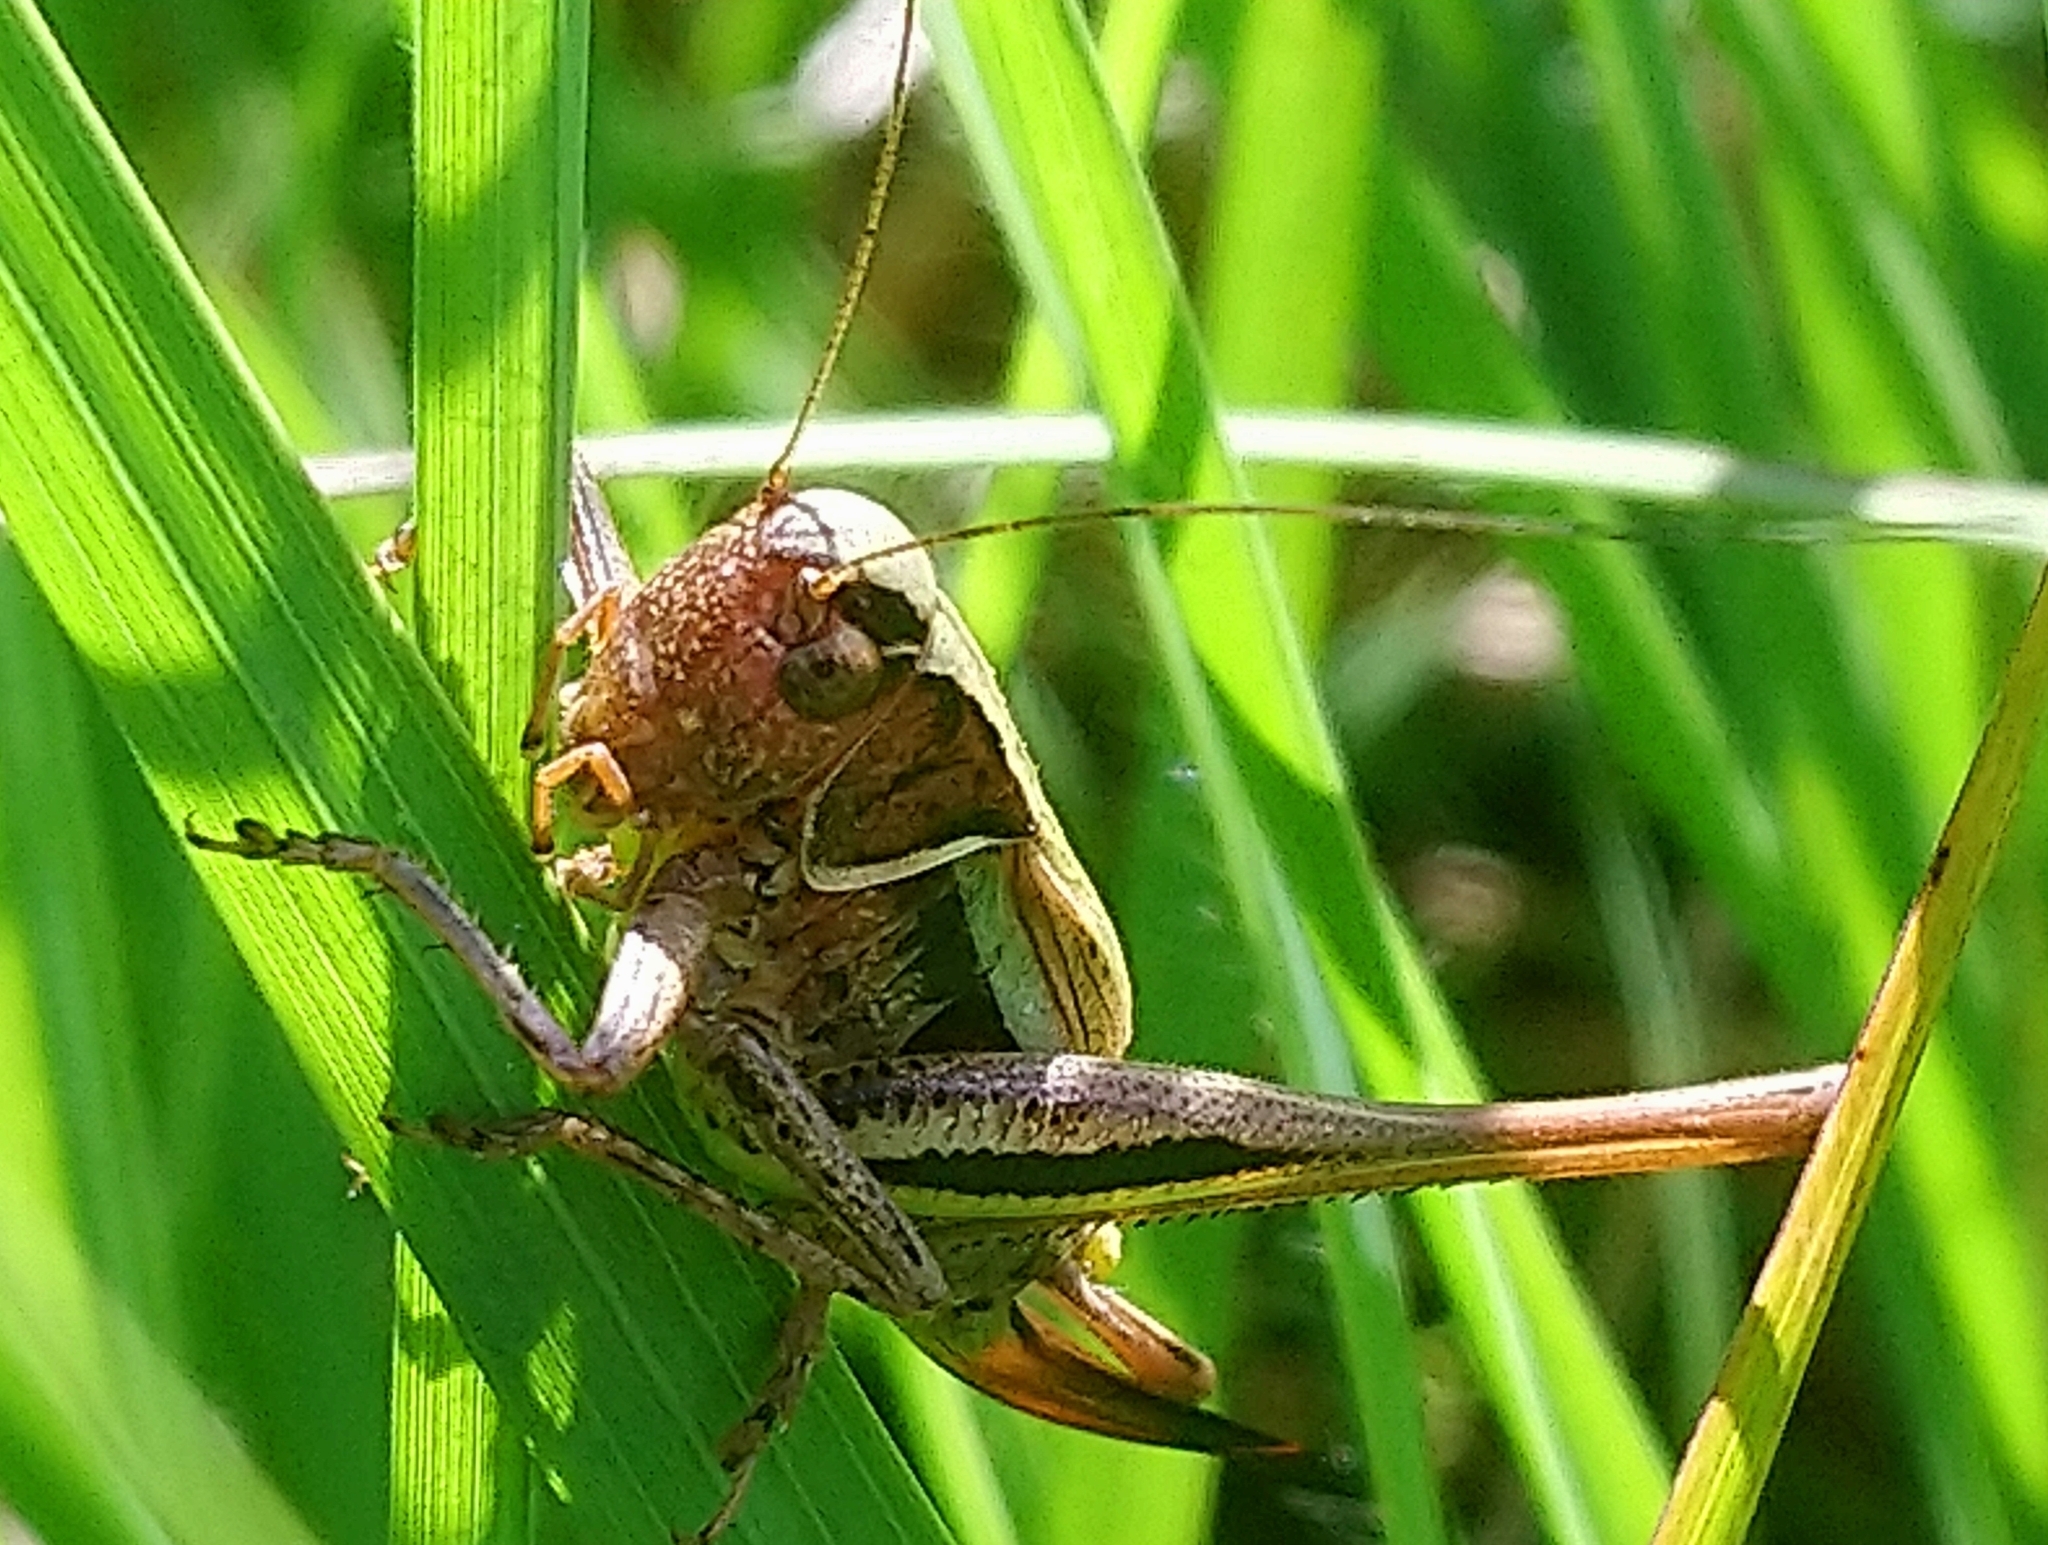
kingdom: Animalia
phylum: Arthropoda
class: Insecta
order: Orthoptera
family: Tettigoniidae
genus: Metrioptera
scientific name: Metrioptera brachyptera
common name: Bog bush-cricket
